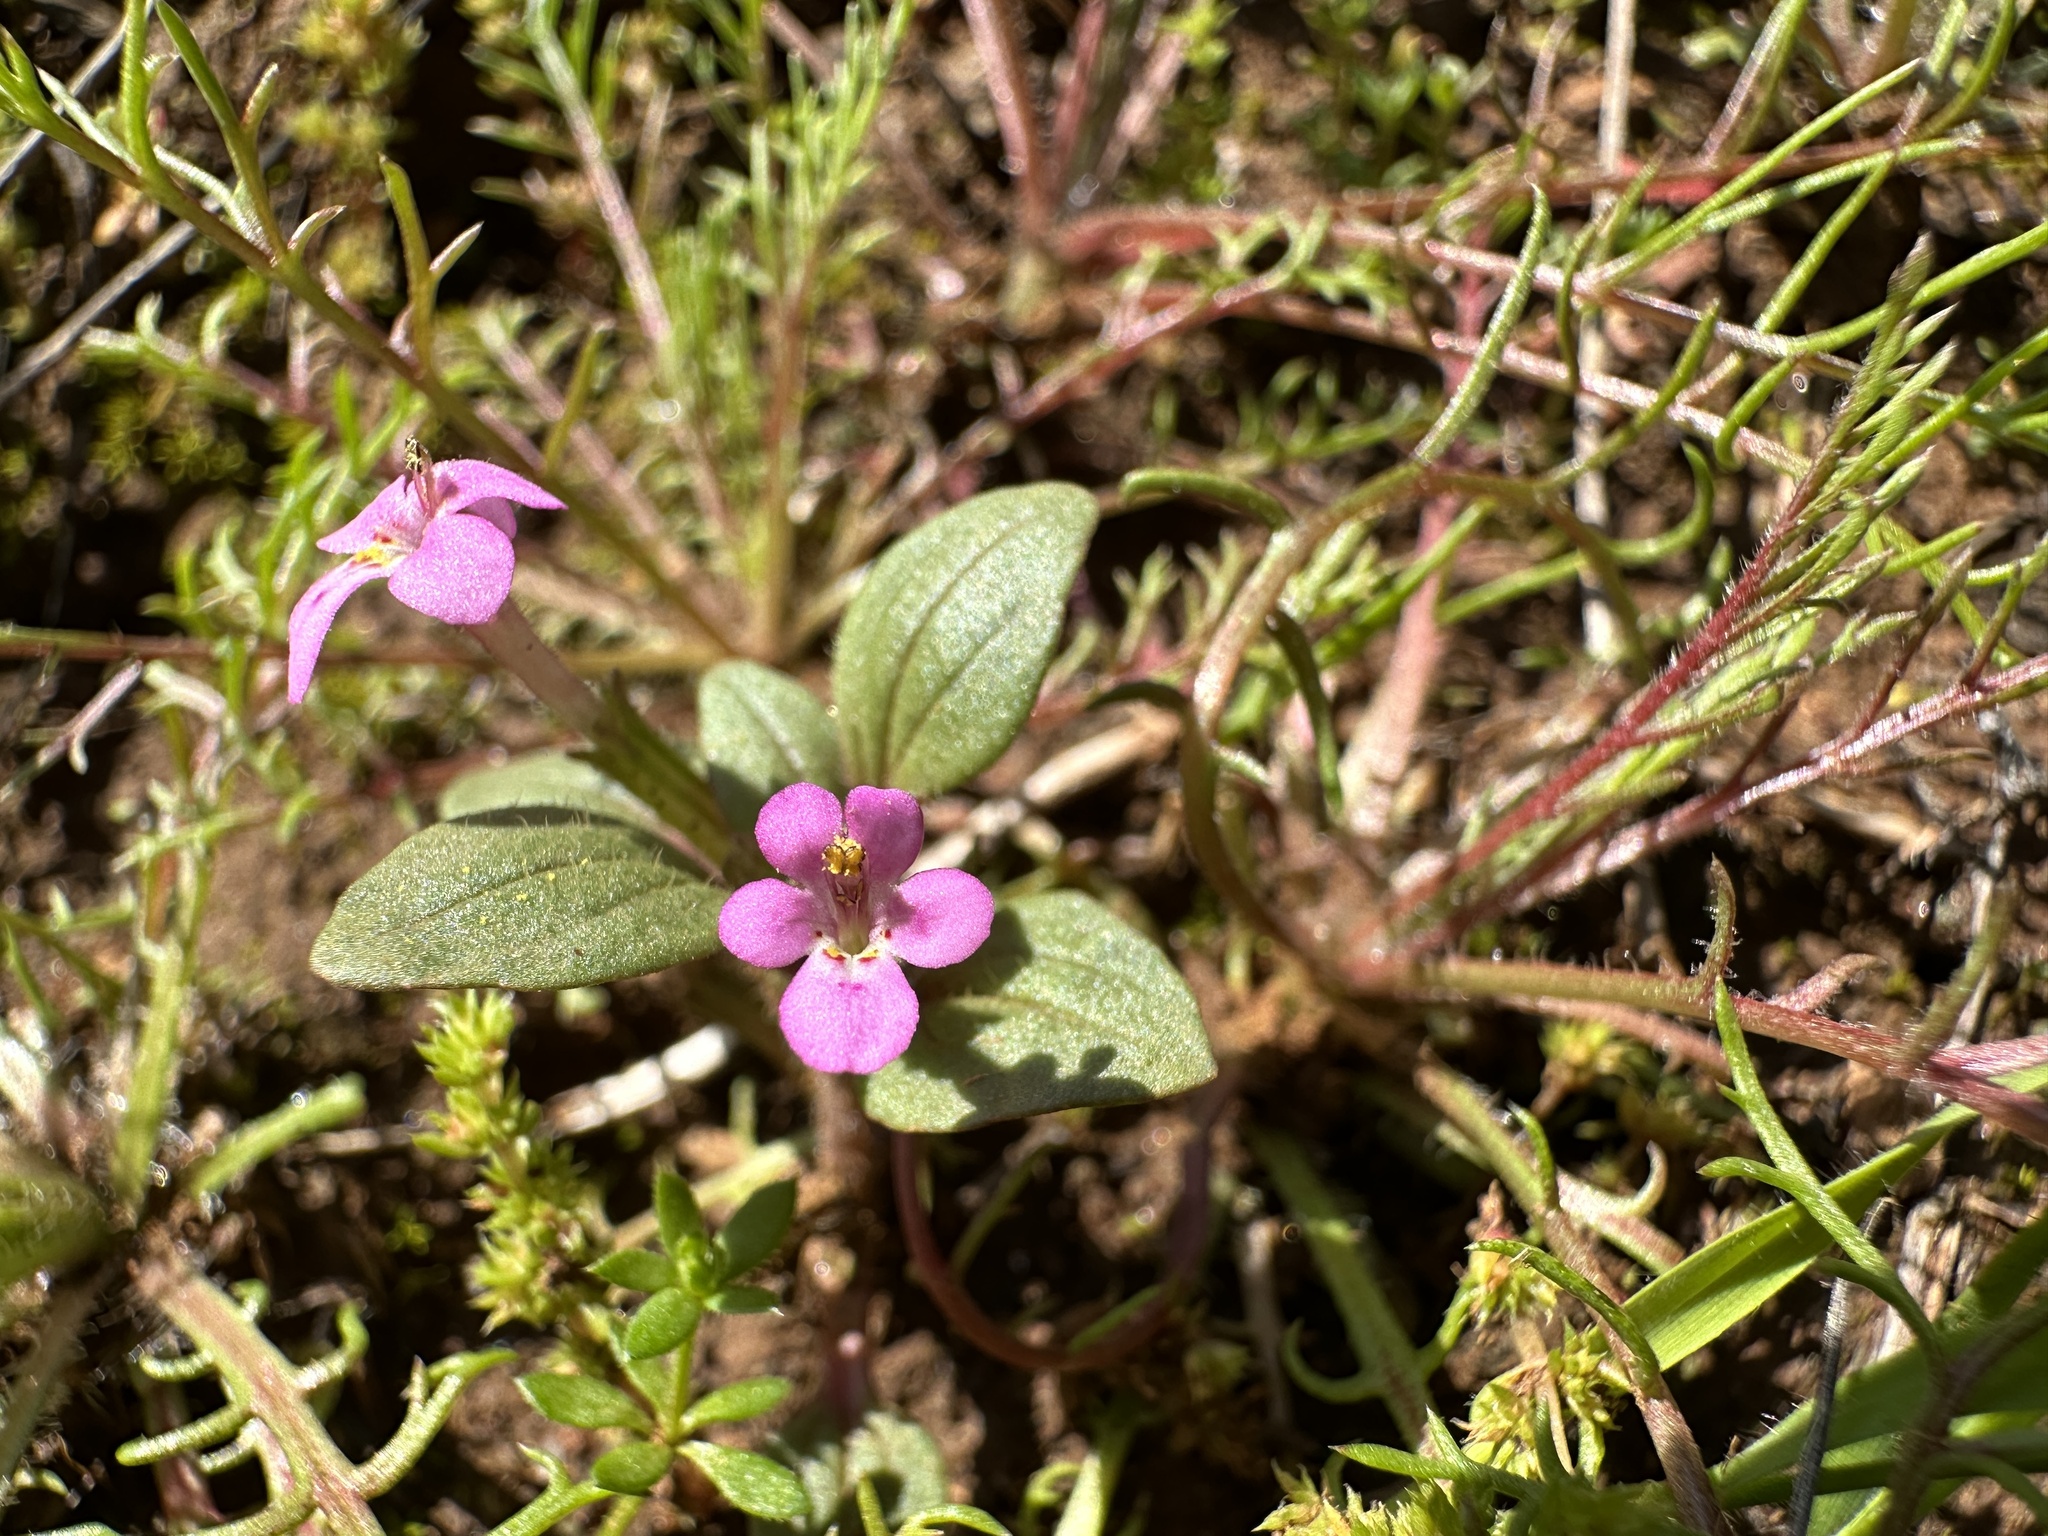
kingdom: Plantae
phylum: Tracheophyta
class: Magnoliopsida
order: Lamiales
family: Phrymaceae
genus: Diplacus
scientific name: Diplacus congdonii
